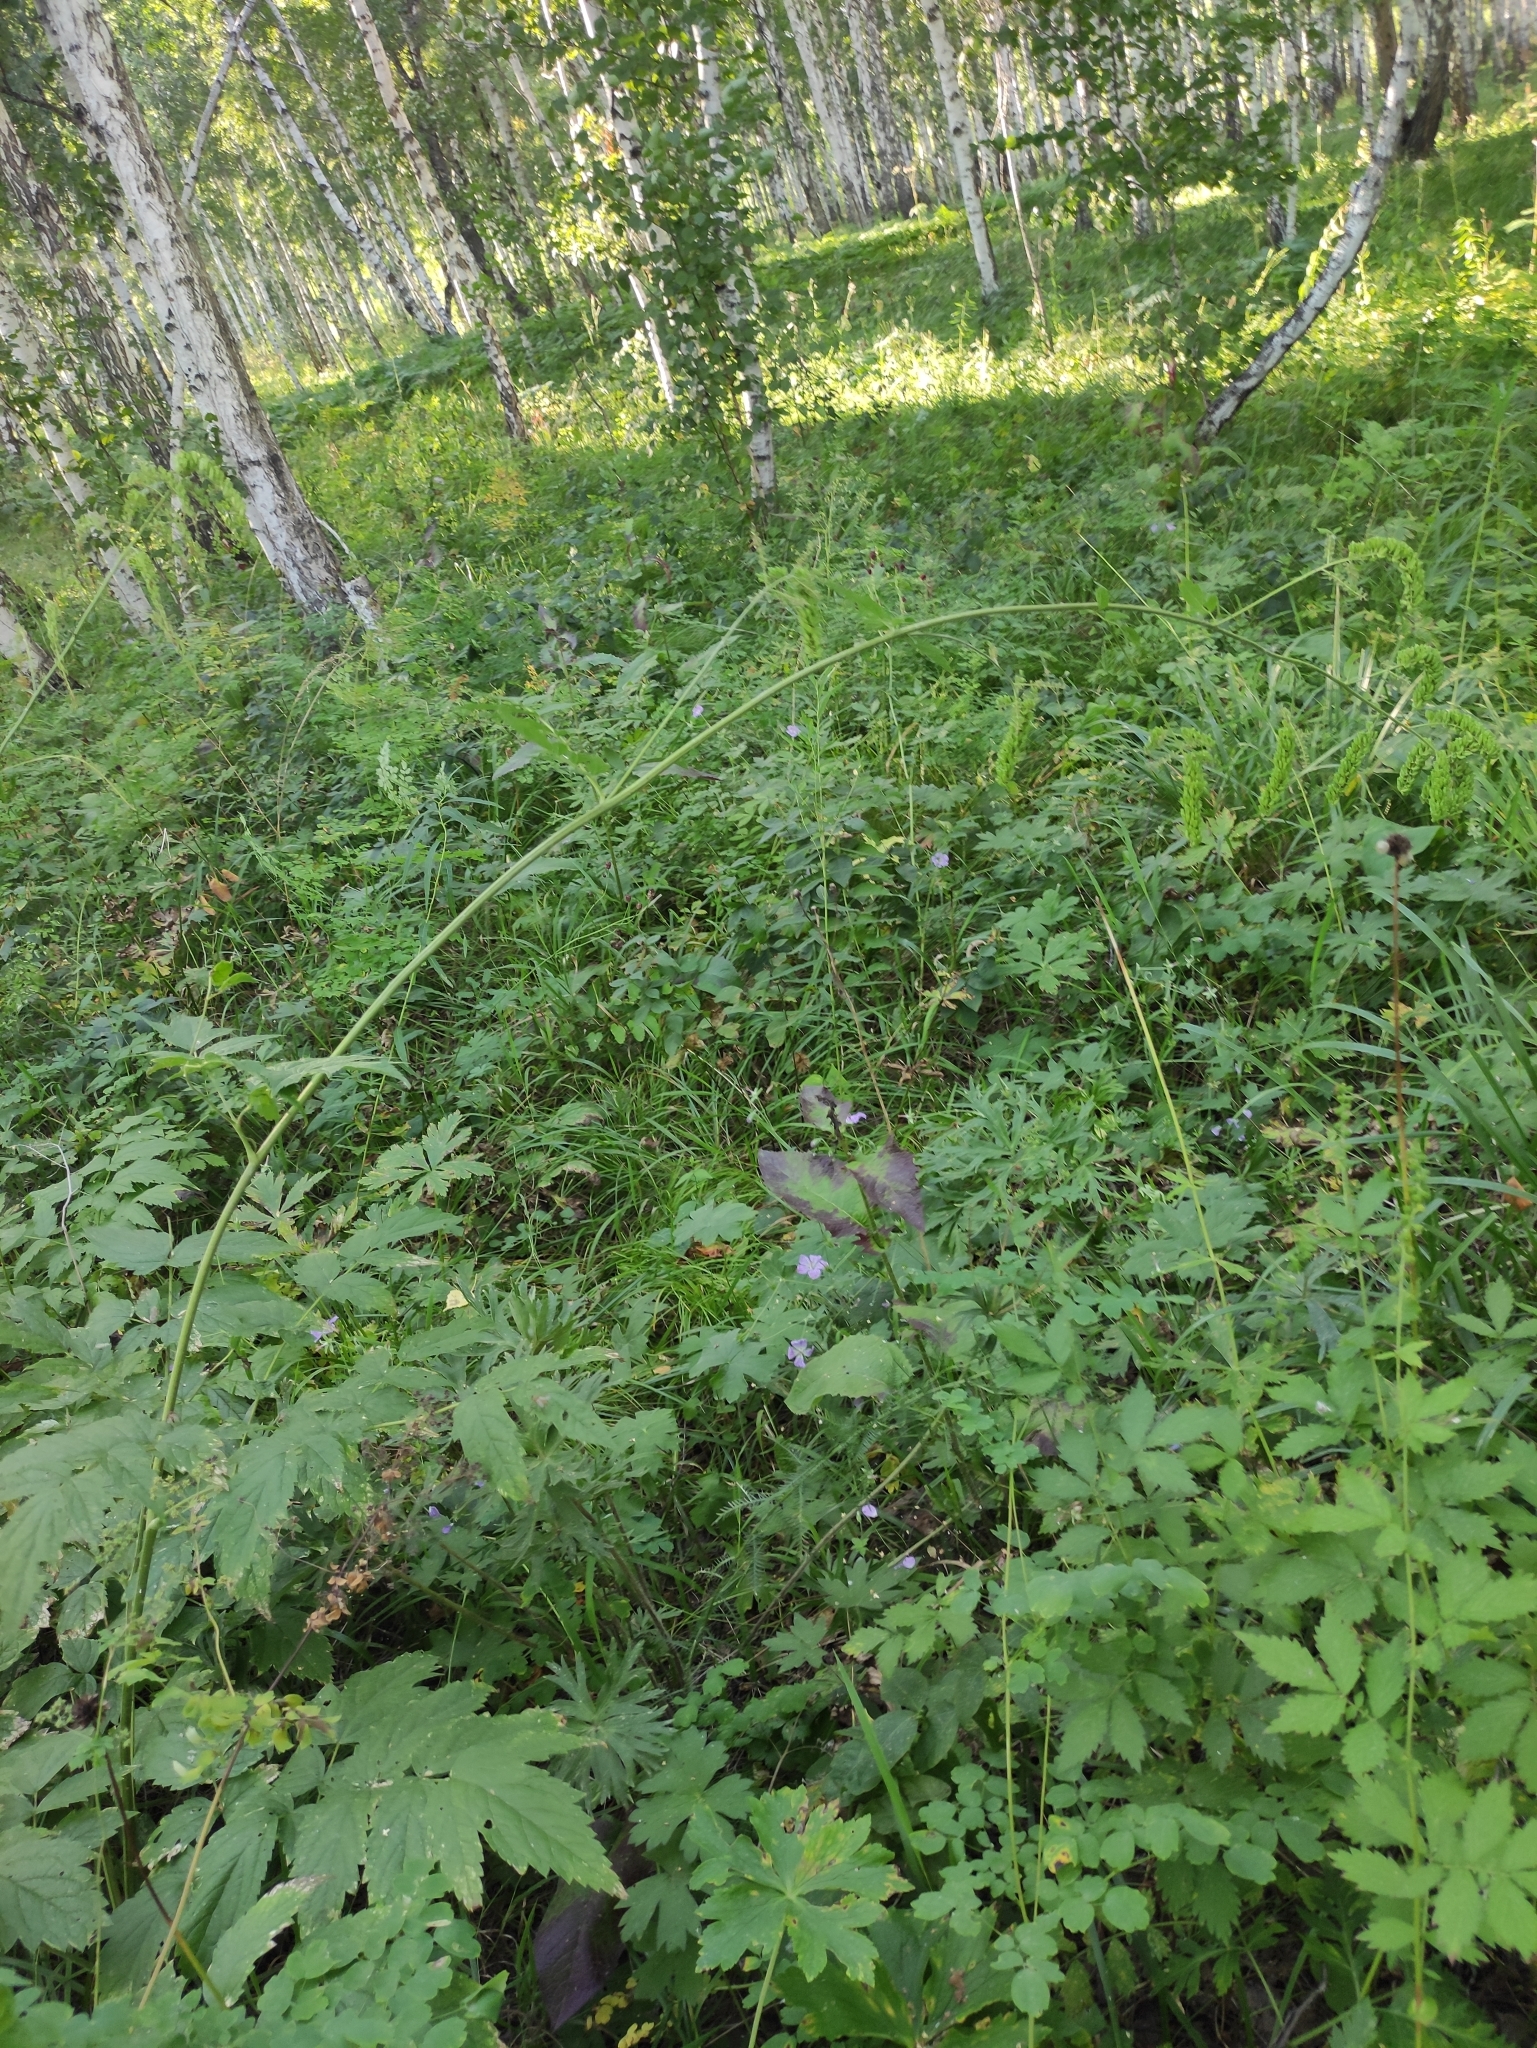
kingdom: Plantae
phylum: Tracheophyta
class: Magnoliopsida
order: Ranunculales
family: Ranunculaceae
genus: Actaea
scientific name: Actaea cimicifuga
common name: Chinese cimicifuga
